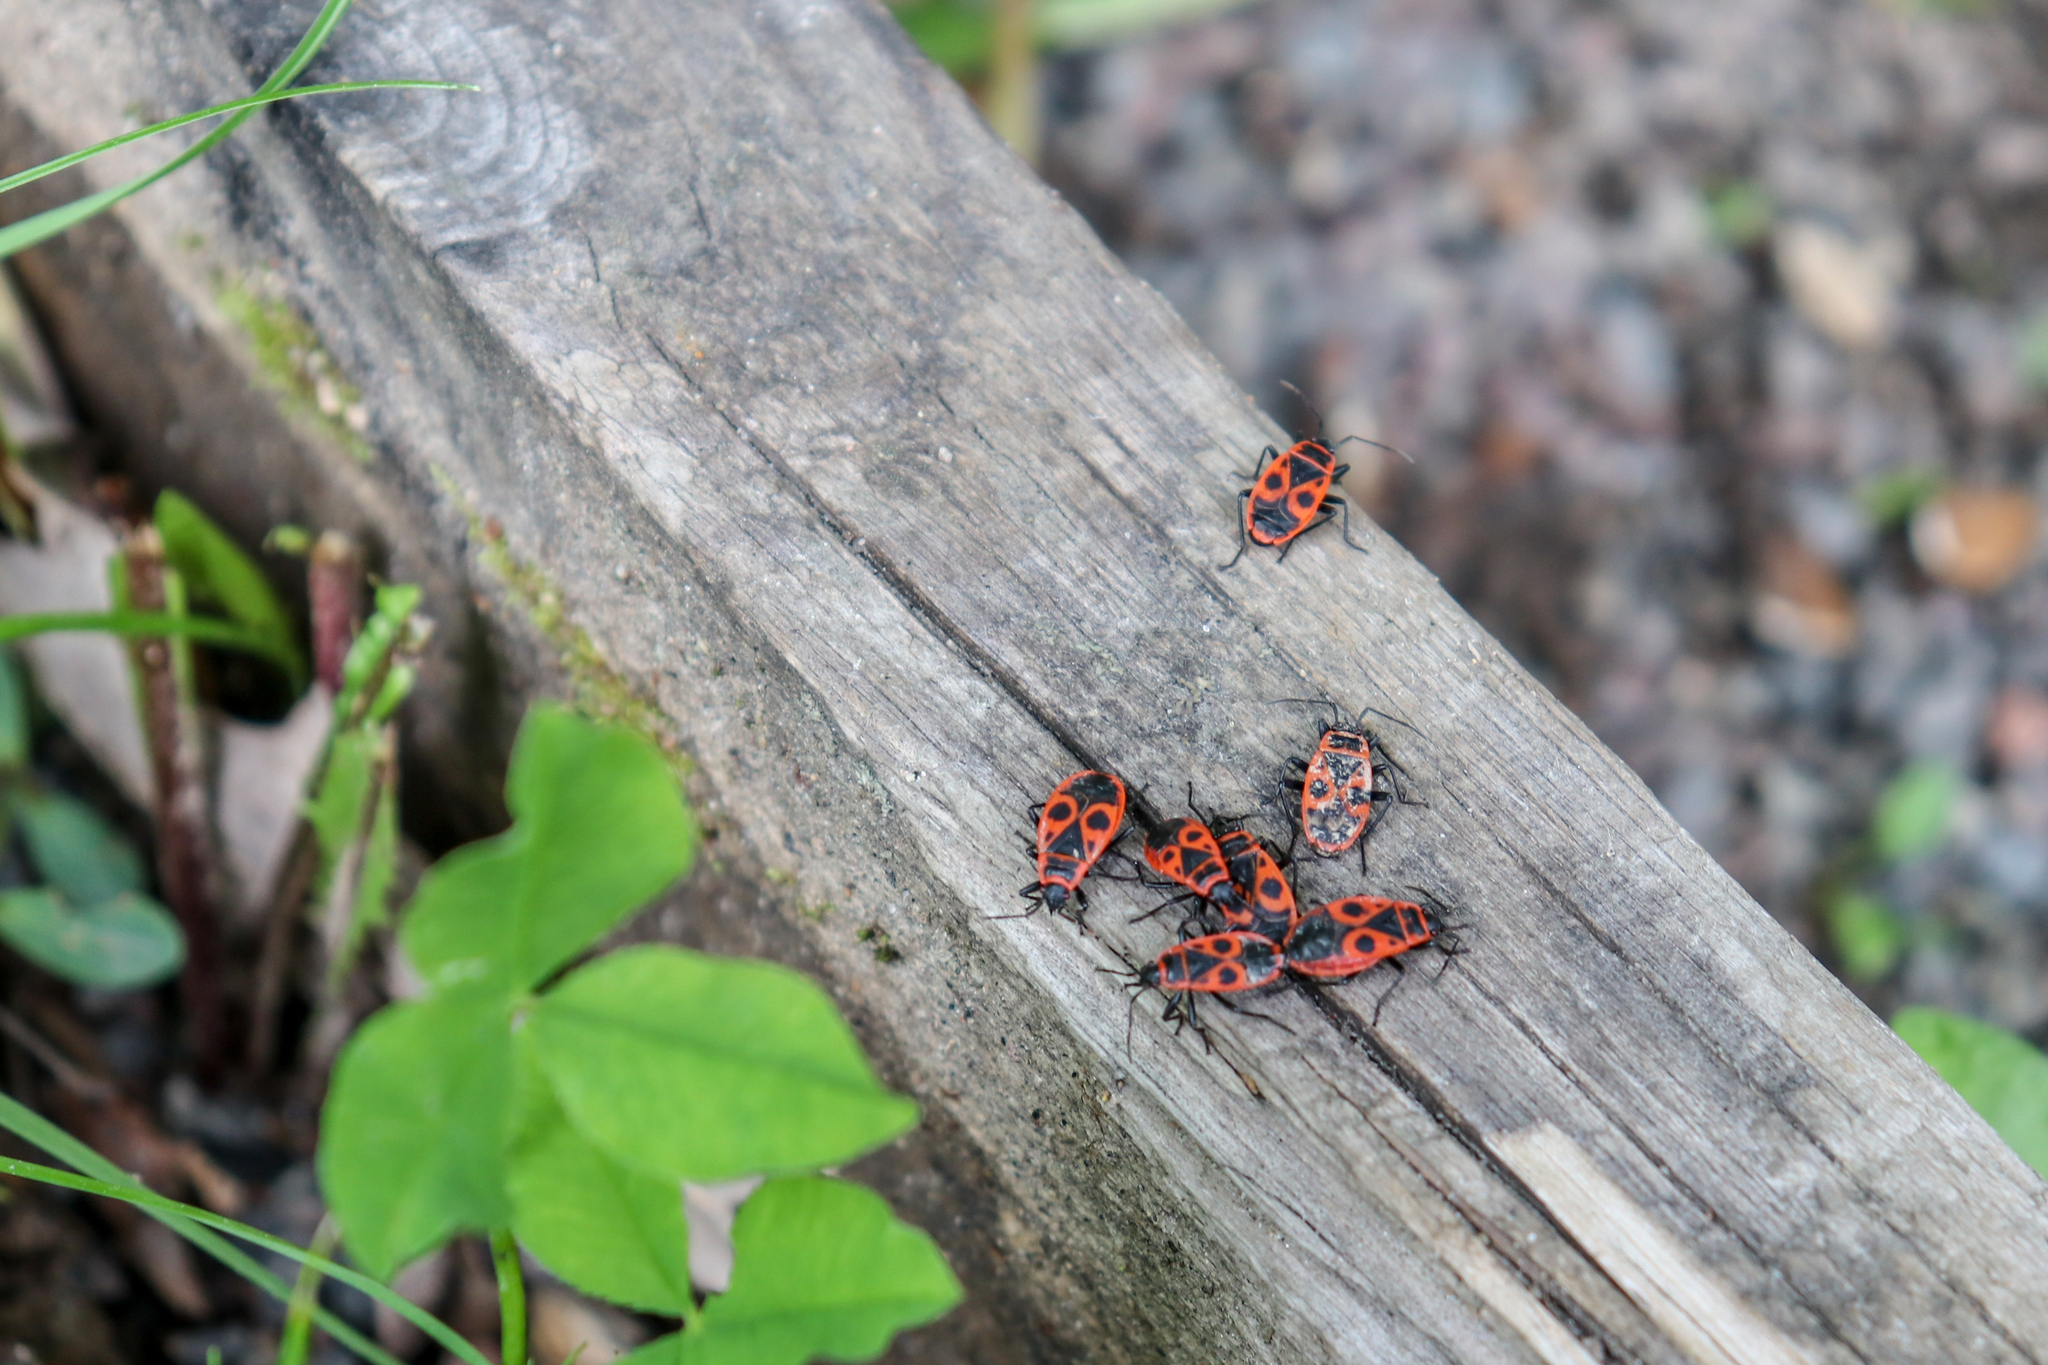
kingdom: Animalia
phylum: Arthropoda
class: Insecta
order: Hemiptera
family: Pyrrhocoridae
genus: Pyrrhocoris
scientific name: Pyrrhocoris apterus
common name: Firebug
